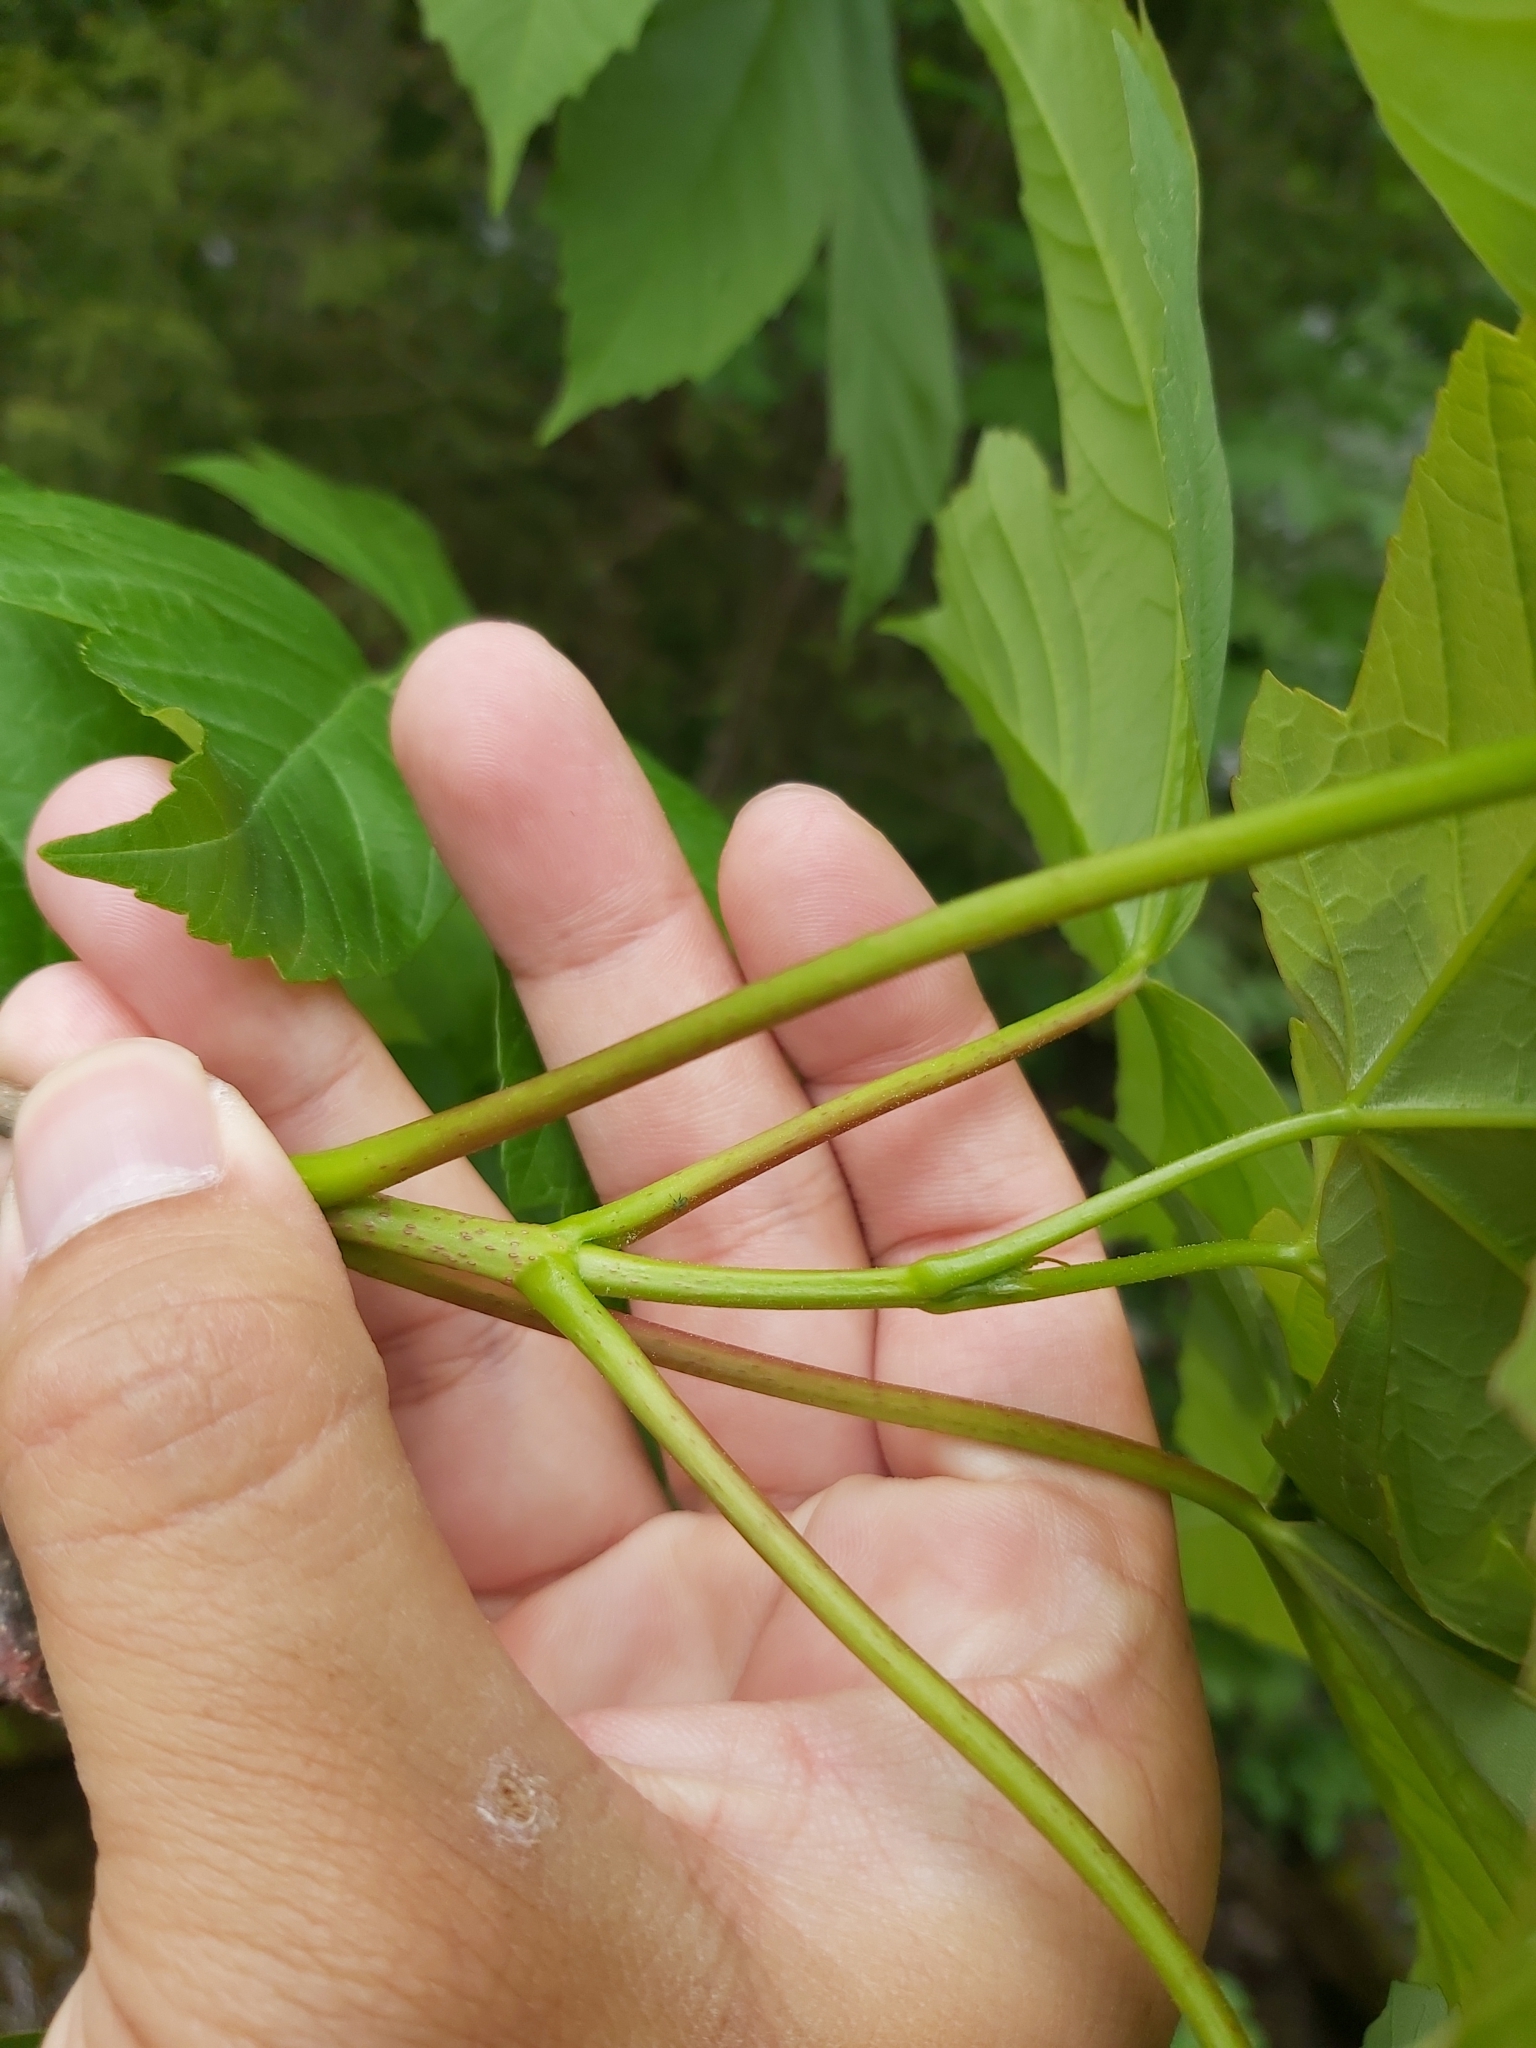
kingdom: Plantae
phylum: Tracheophyta
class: Magnoliopsida
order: Sapindales
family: Sapindaceae
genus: Acer
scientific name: Acer pseudoplatanus
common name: Sycamore
